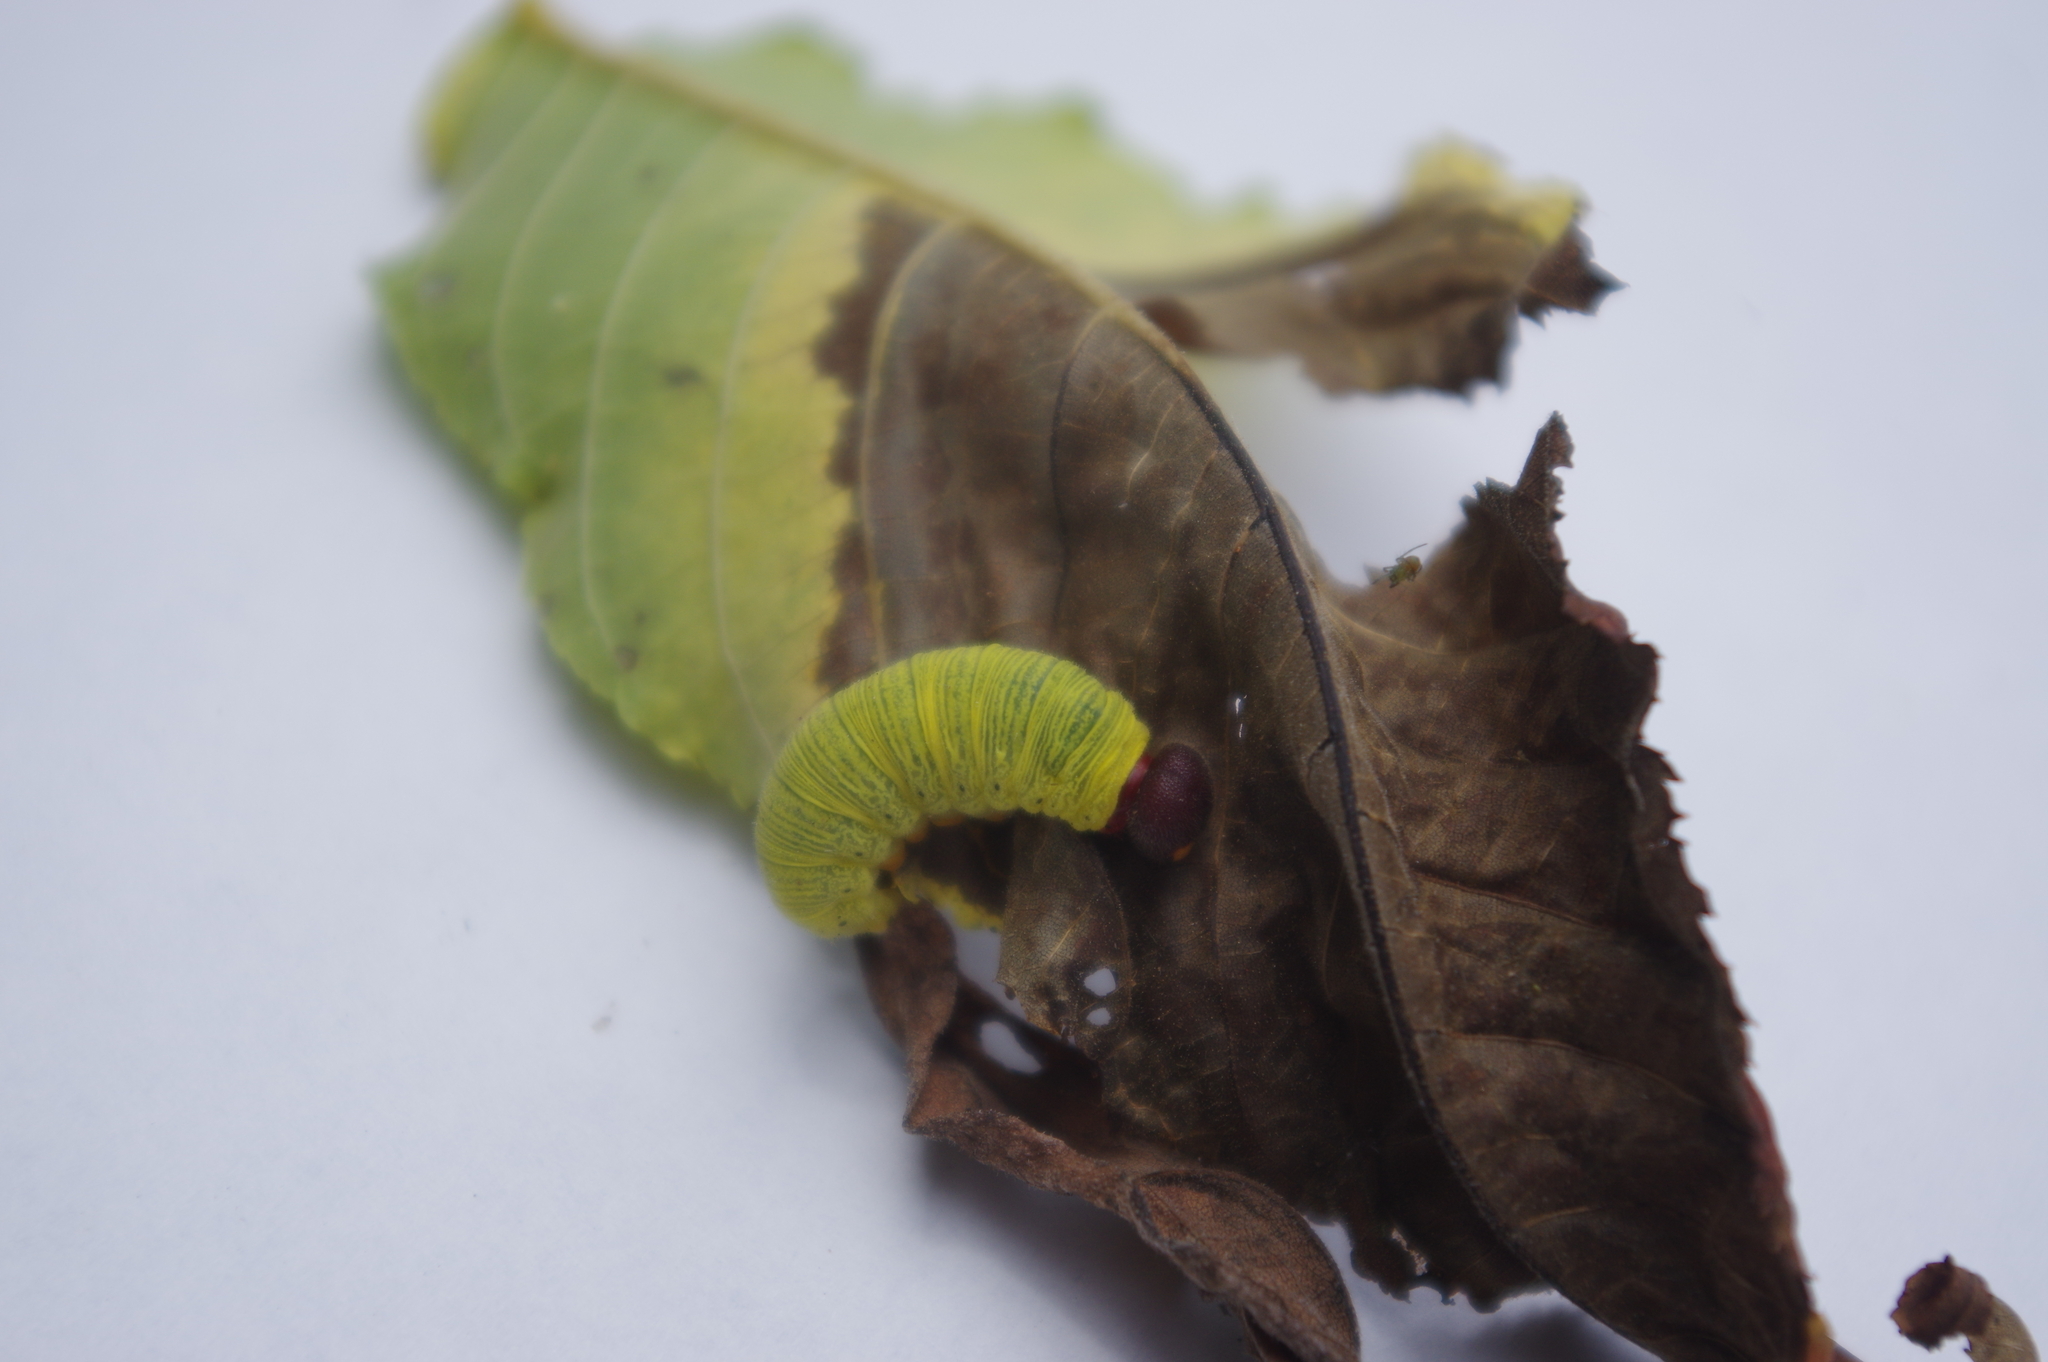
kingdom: Animalia
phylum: Arthropoda
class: Insecta
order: Lepidoptera
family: Hesperiidae
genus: Epargyreus
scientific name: Epargyreus clarus
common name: Silver-spotted skipper
